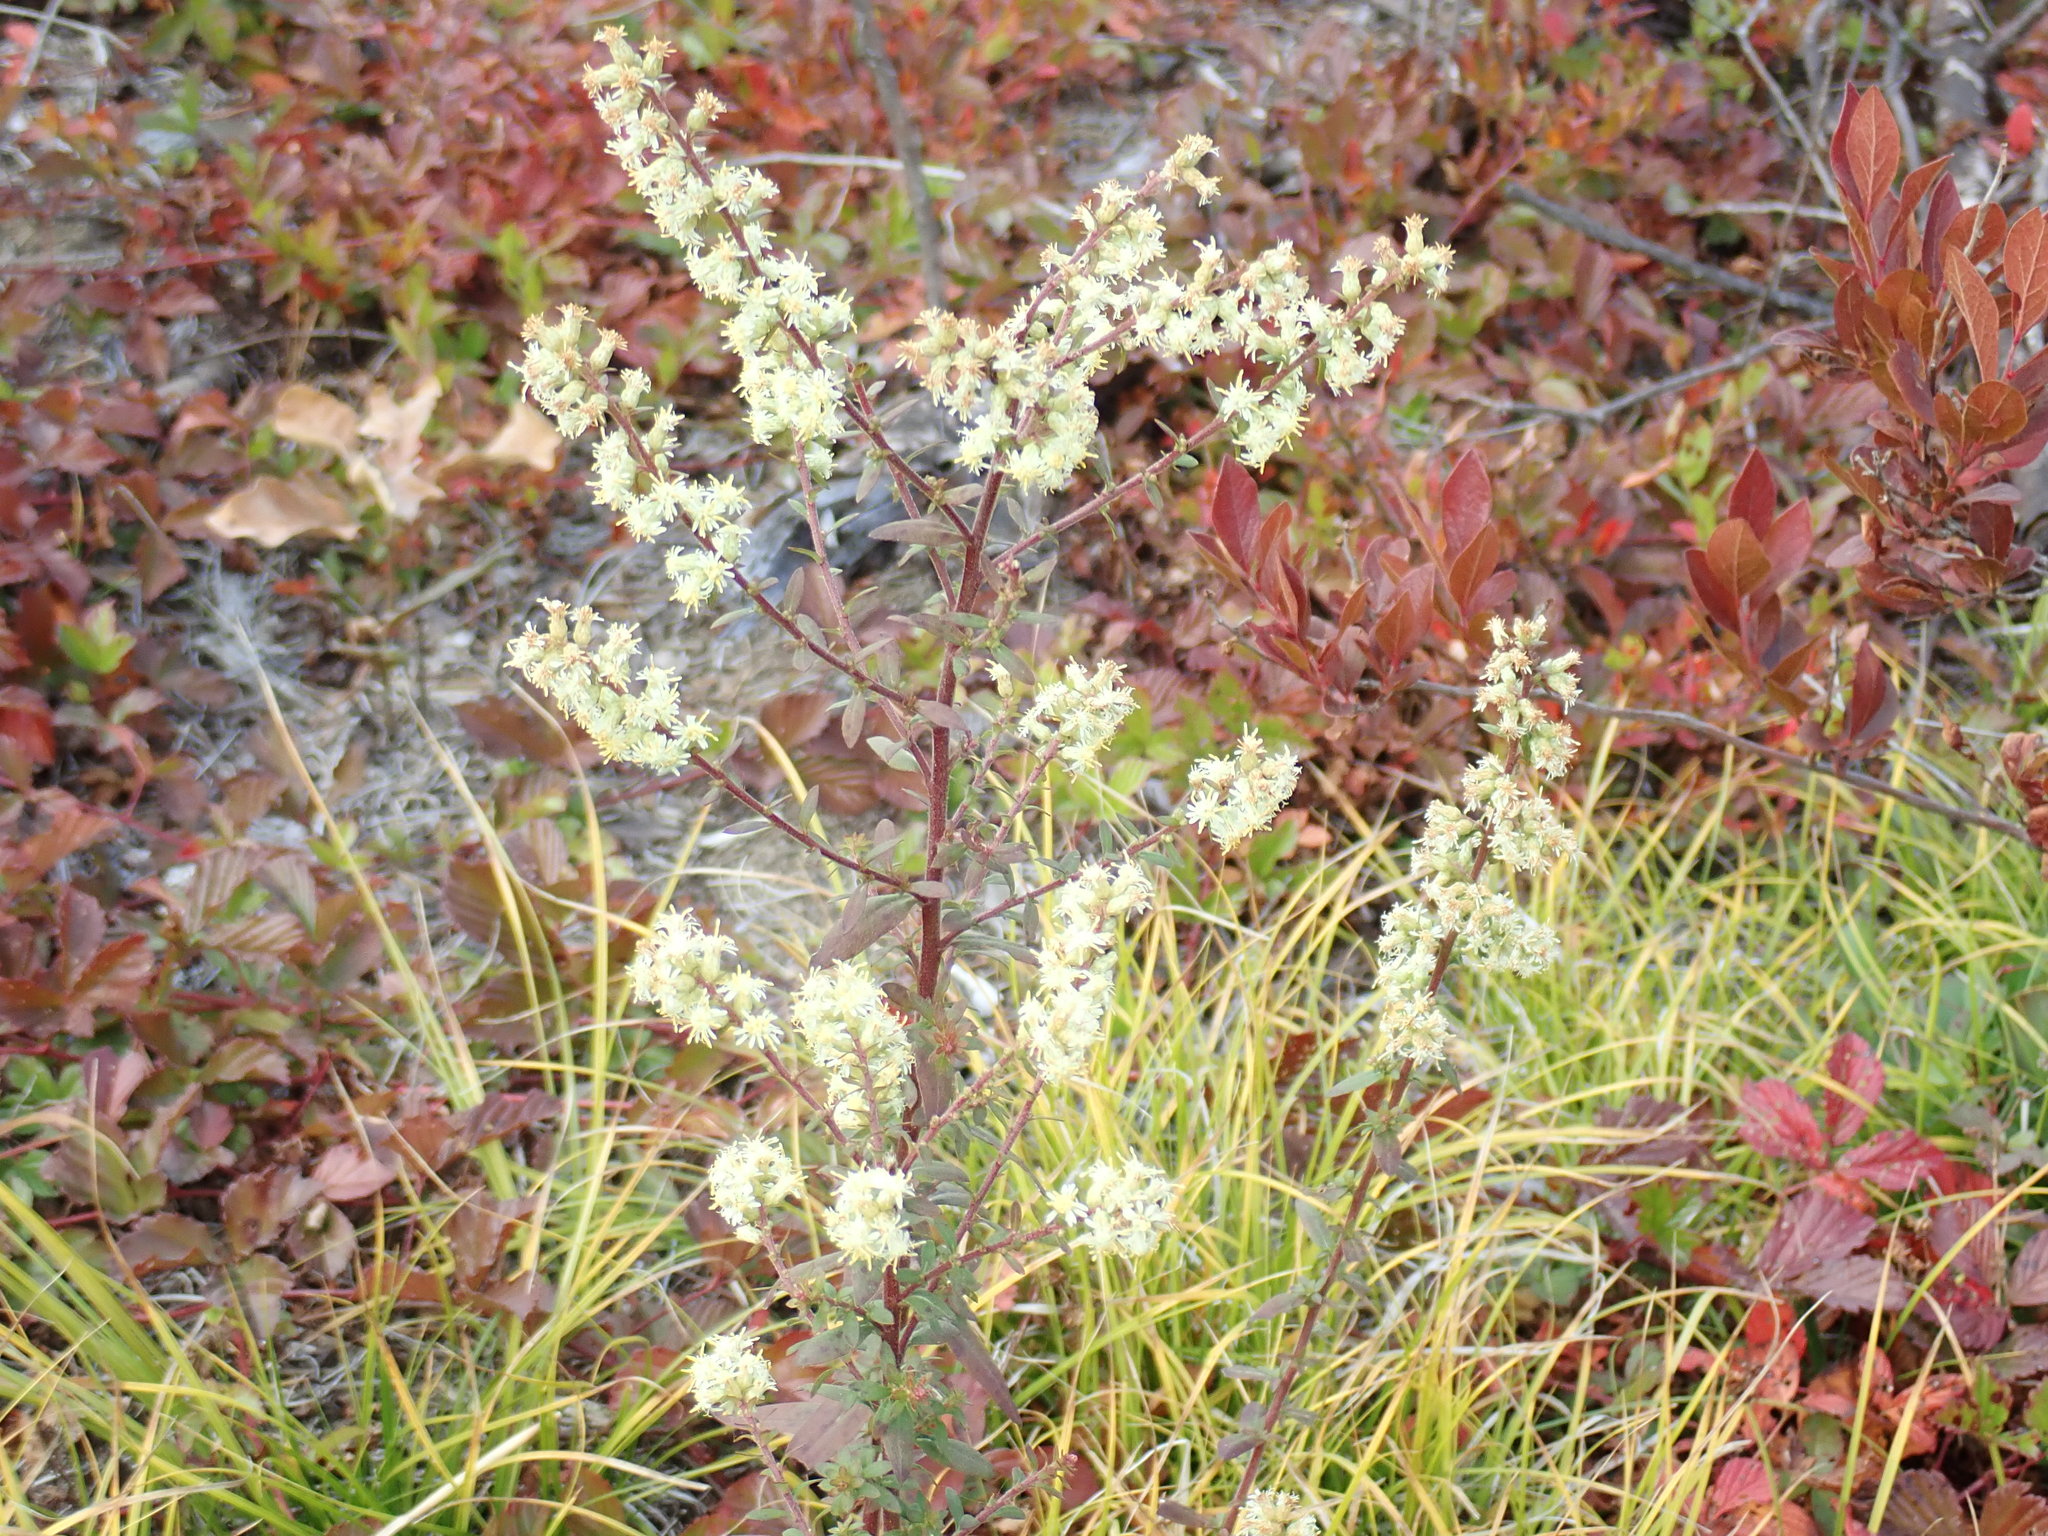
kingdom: Plantae
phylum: Tracheophyta
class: Magnoliopsida
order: Asterales
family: Asteraceae
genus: Solidago
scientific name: Solidago bicolor
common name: Silverrod
